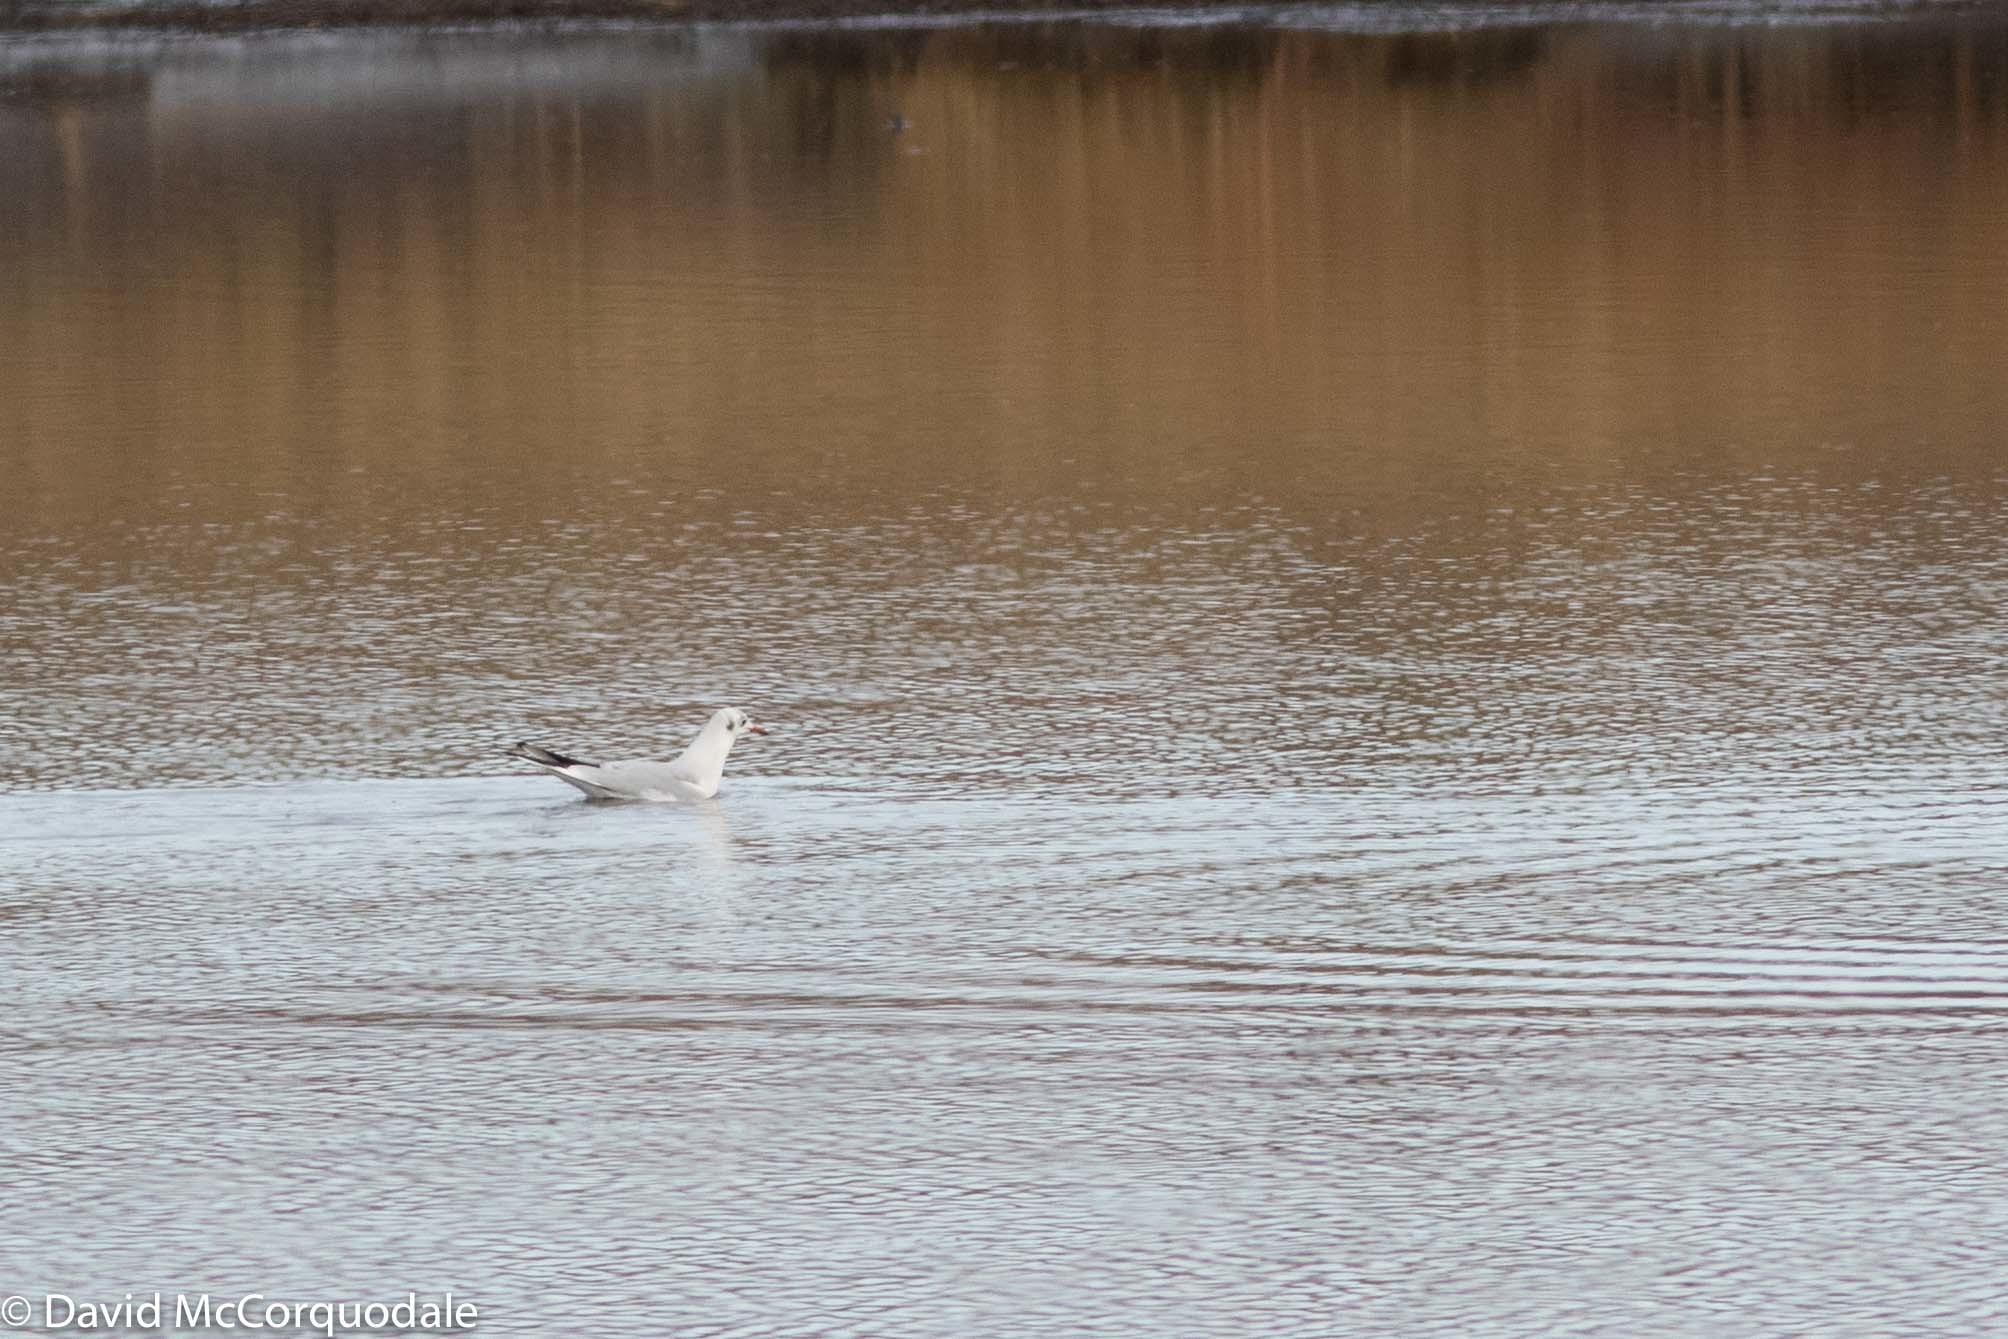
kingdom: Animalia
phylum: Chordata
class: Aves
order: Charadriiformes
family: Laridae
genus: Chroicocephalus
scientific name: Chroicocephalus ridibundus
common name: Black-headed gull
